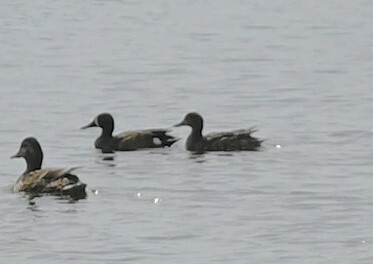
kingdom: Animalia
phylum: Chordata
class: Aves
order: Anseriformes
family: Anatidae
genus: Spatula
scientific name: Spatula discors
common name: Blue-winged teal
